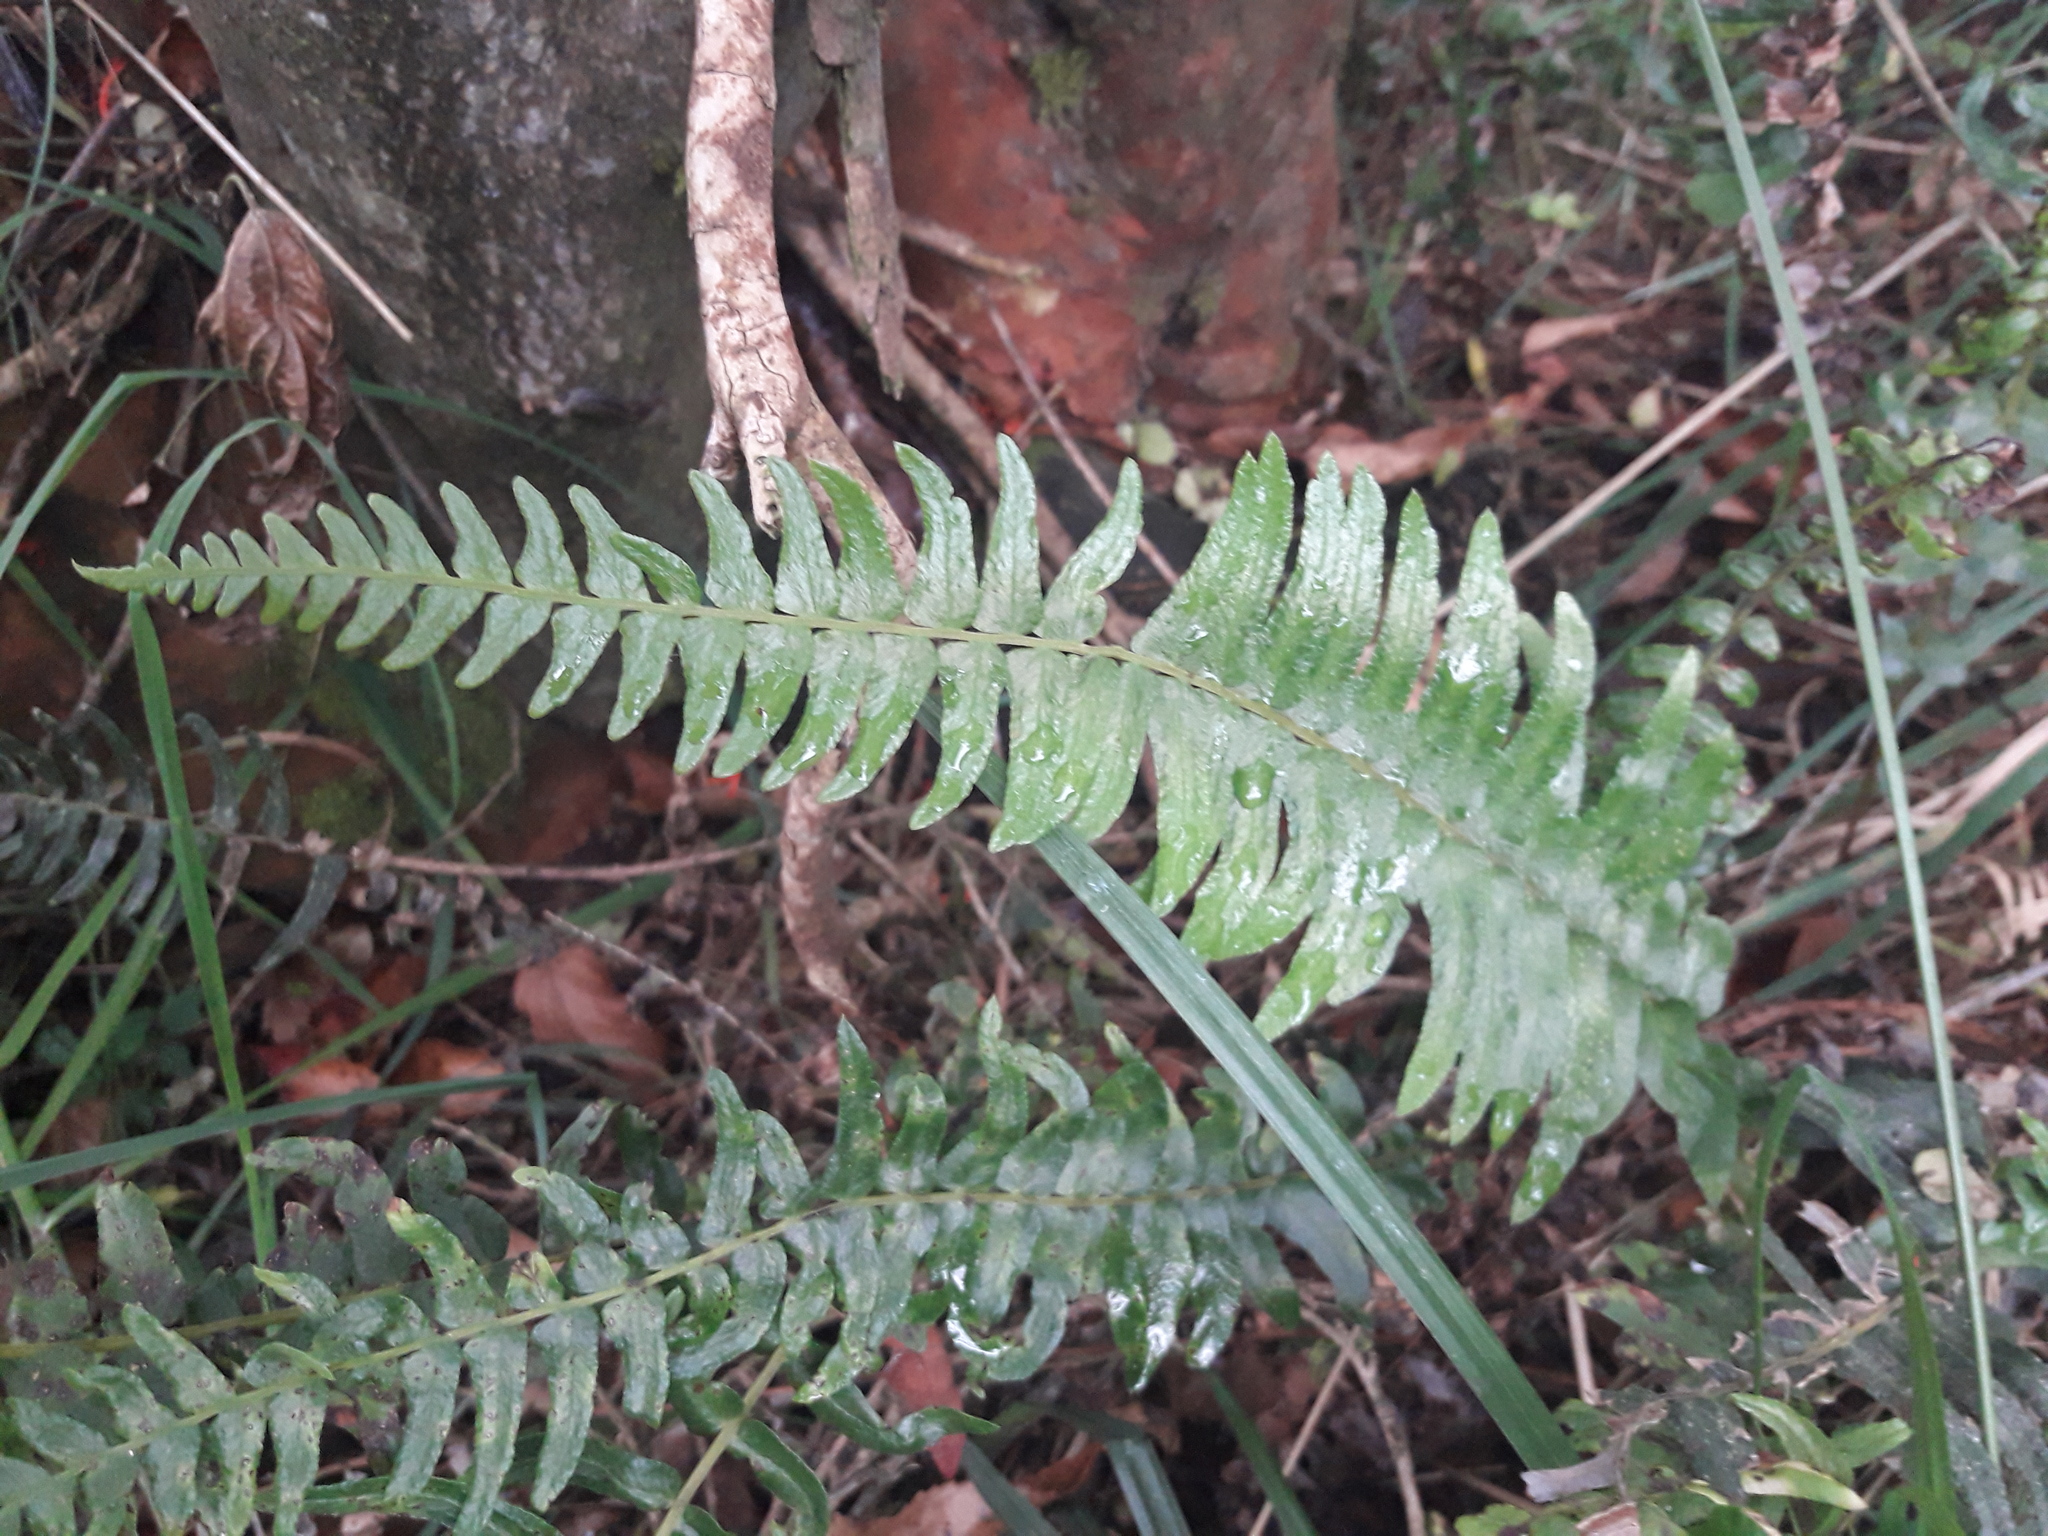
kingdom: Plantae
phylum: Tracheophyta
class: Polypodiopsida
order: Polypodiales
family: Blechnaceae
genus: Blechnum
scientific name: Blechnum hastatum
